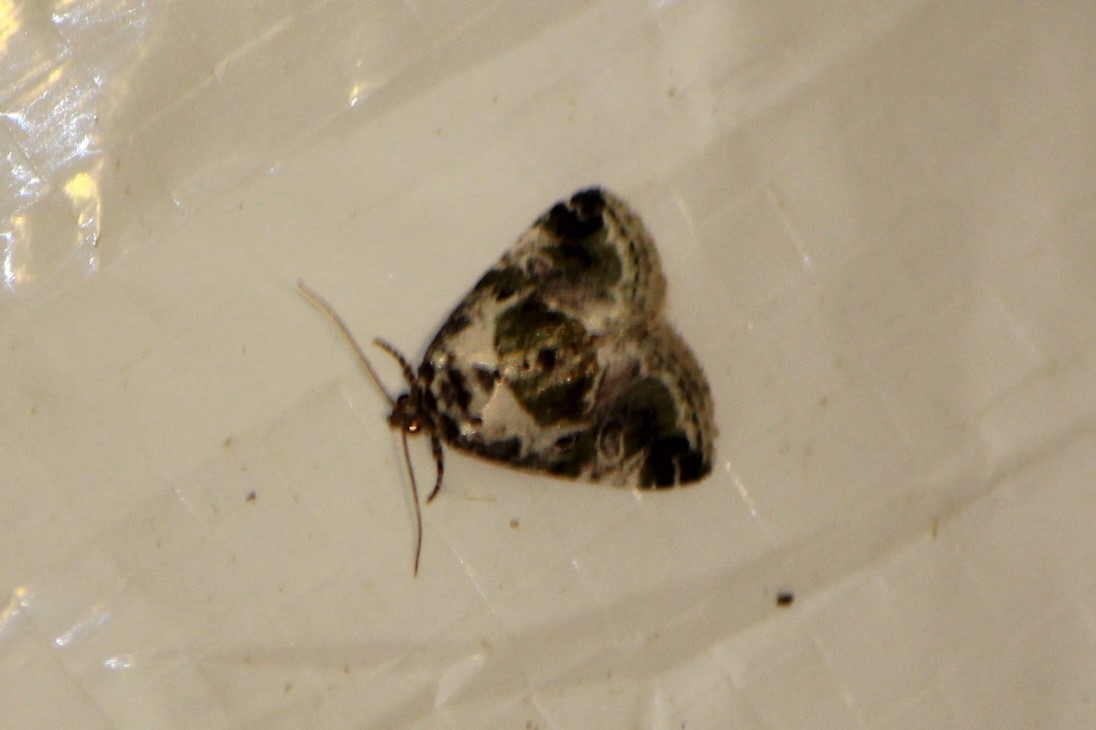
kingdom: Animalia
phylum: Arthropoda
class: Insecta
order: Lepidoptera
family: Noctuidae
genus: Maliattha
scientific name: Maliattha synochitis
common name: Black-dotted glyph
